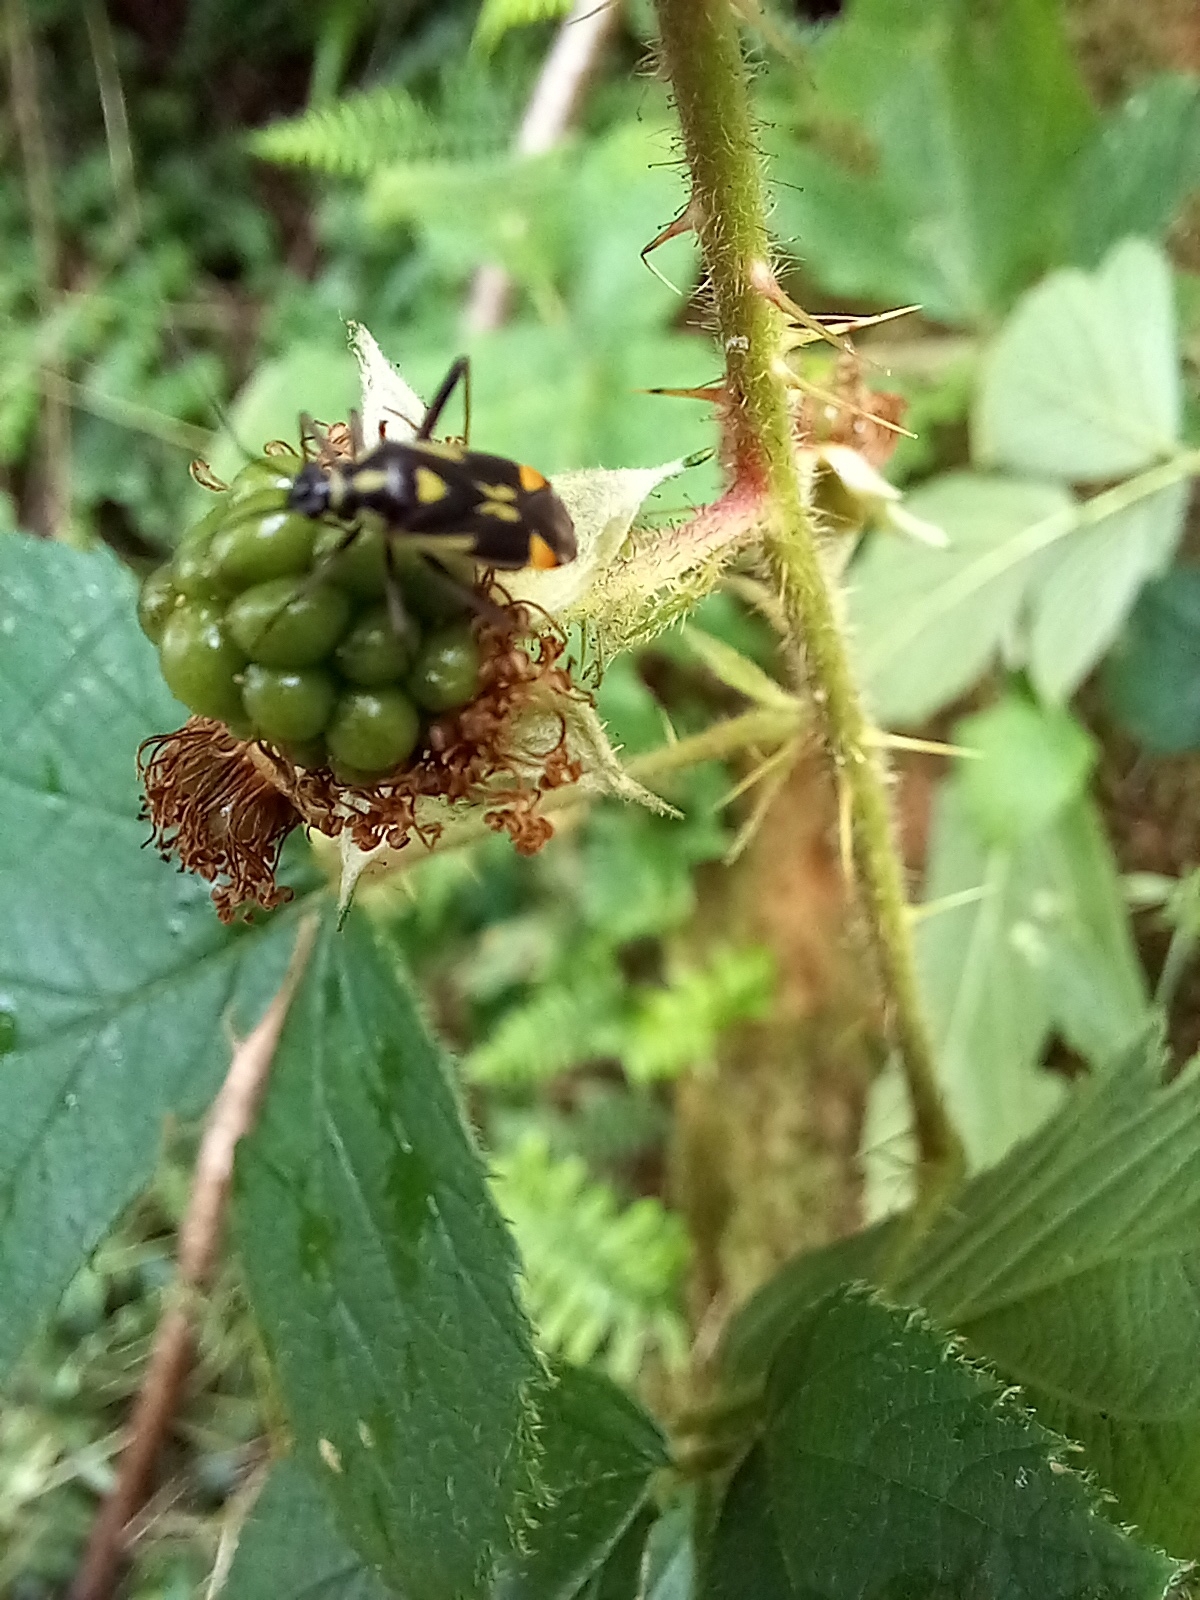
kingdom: Animalia
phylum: Arthropoda
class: Insecta
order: Hemiptera
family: Miridae
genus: Grypocoris
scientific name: Grypocoris stysi
